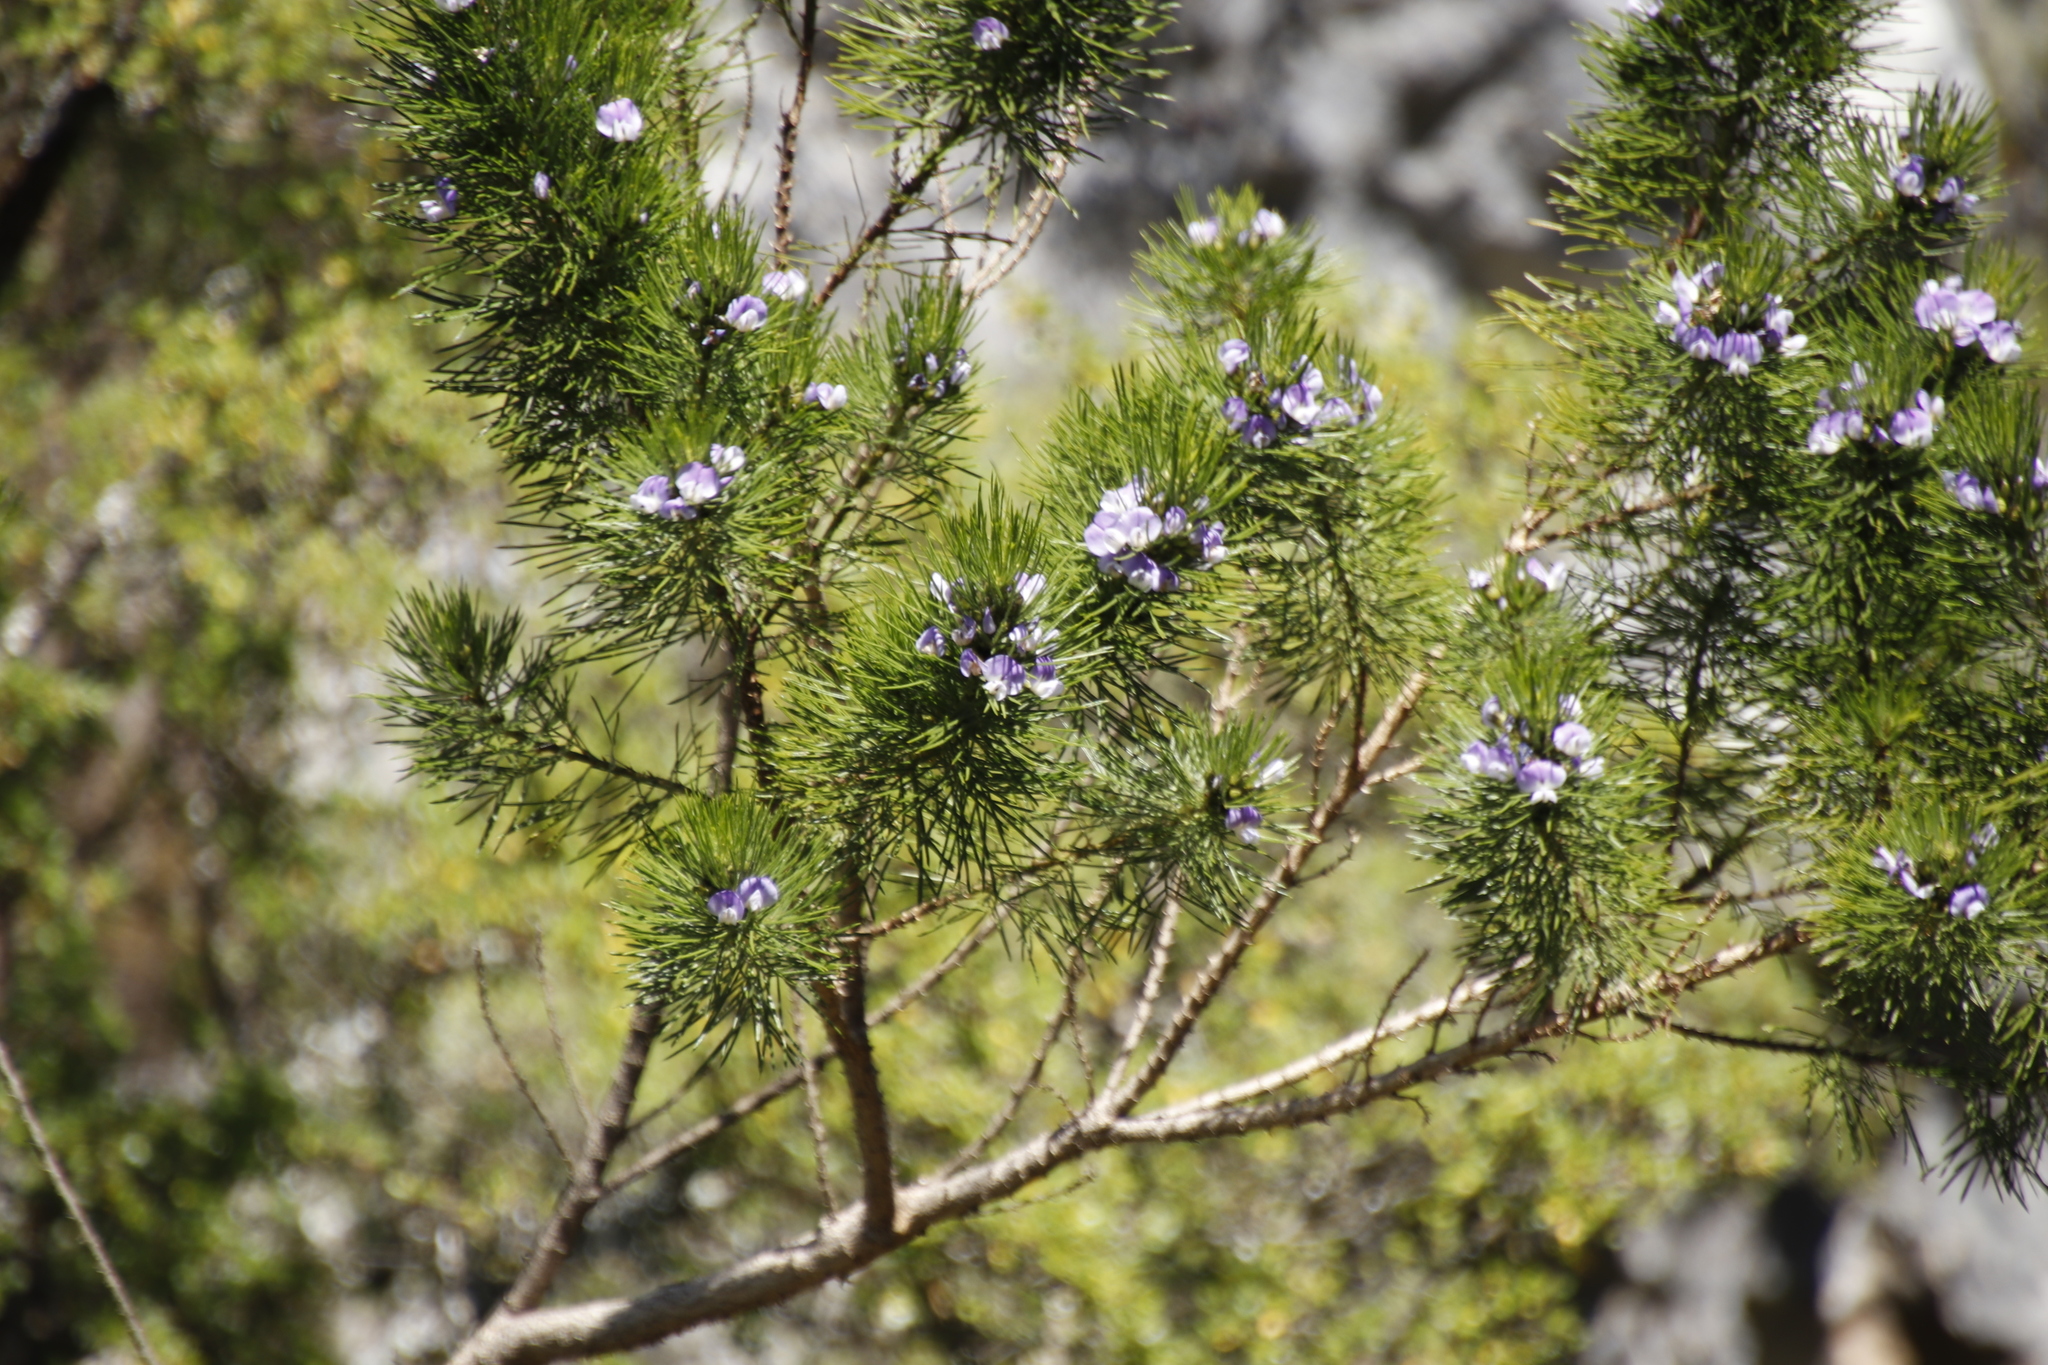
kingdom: Plantae
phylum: Tracheophyta
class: Magnoliopsida
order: Fabales
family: Fabaceae
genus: Psoralea
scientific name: Psoralea pinnata
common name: African scurfpea
